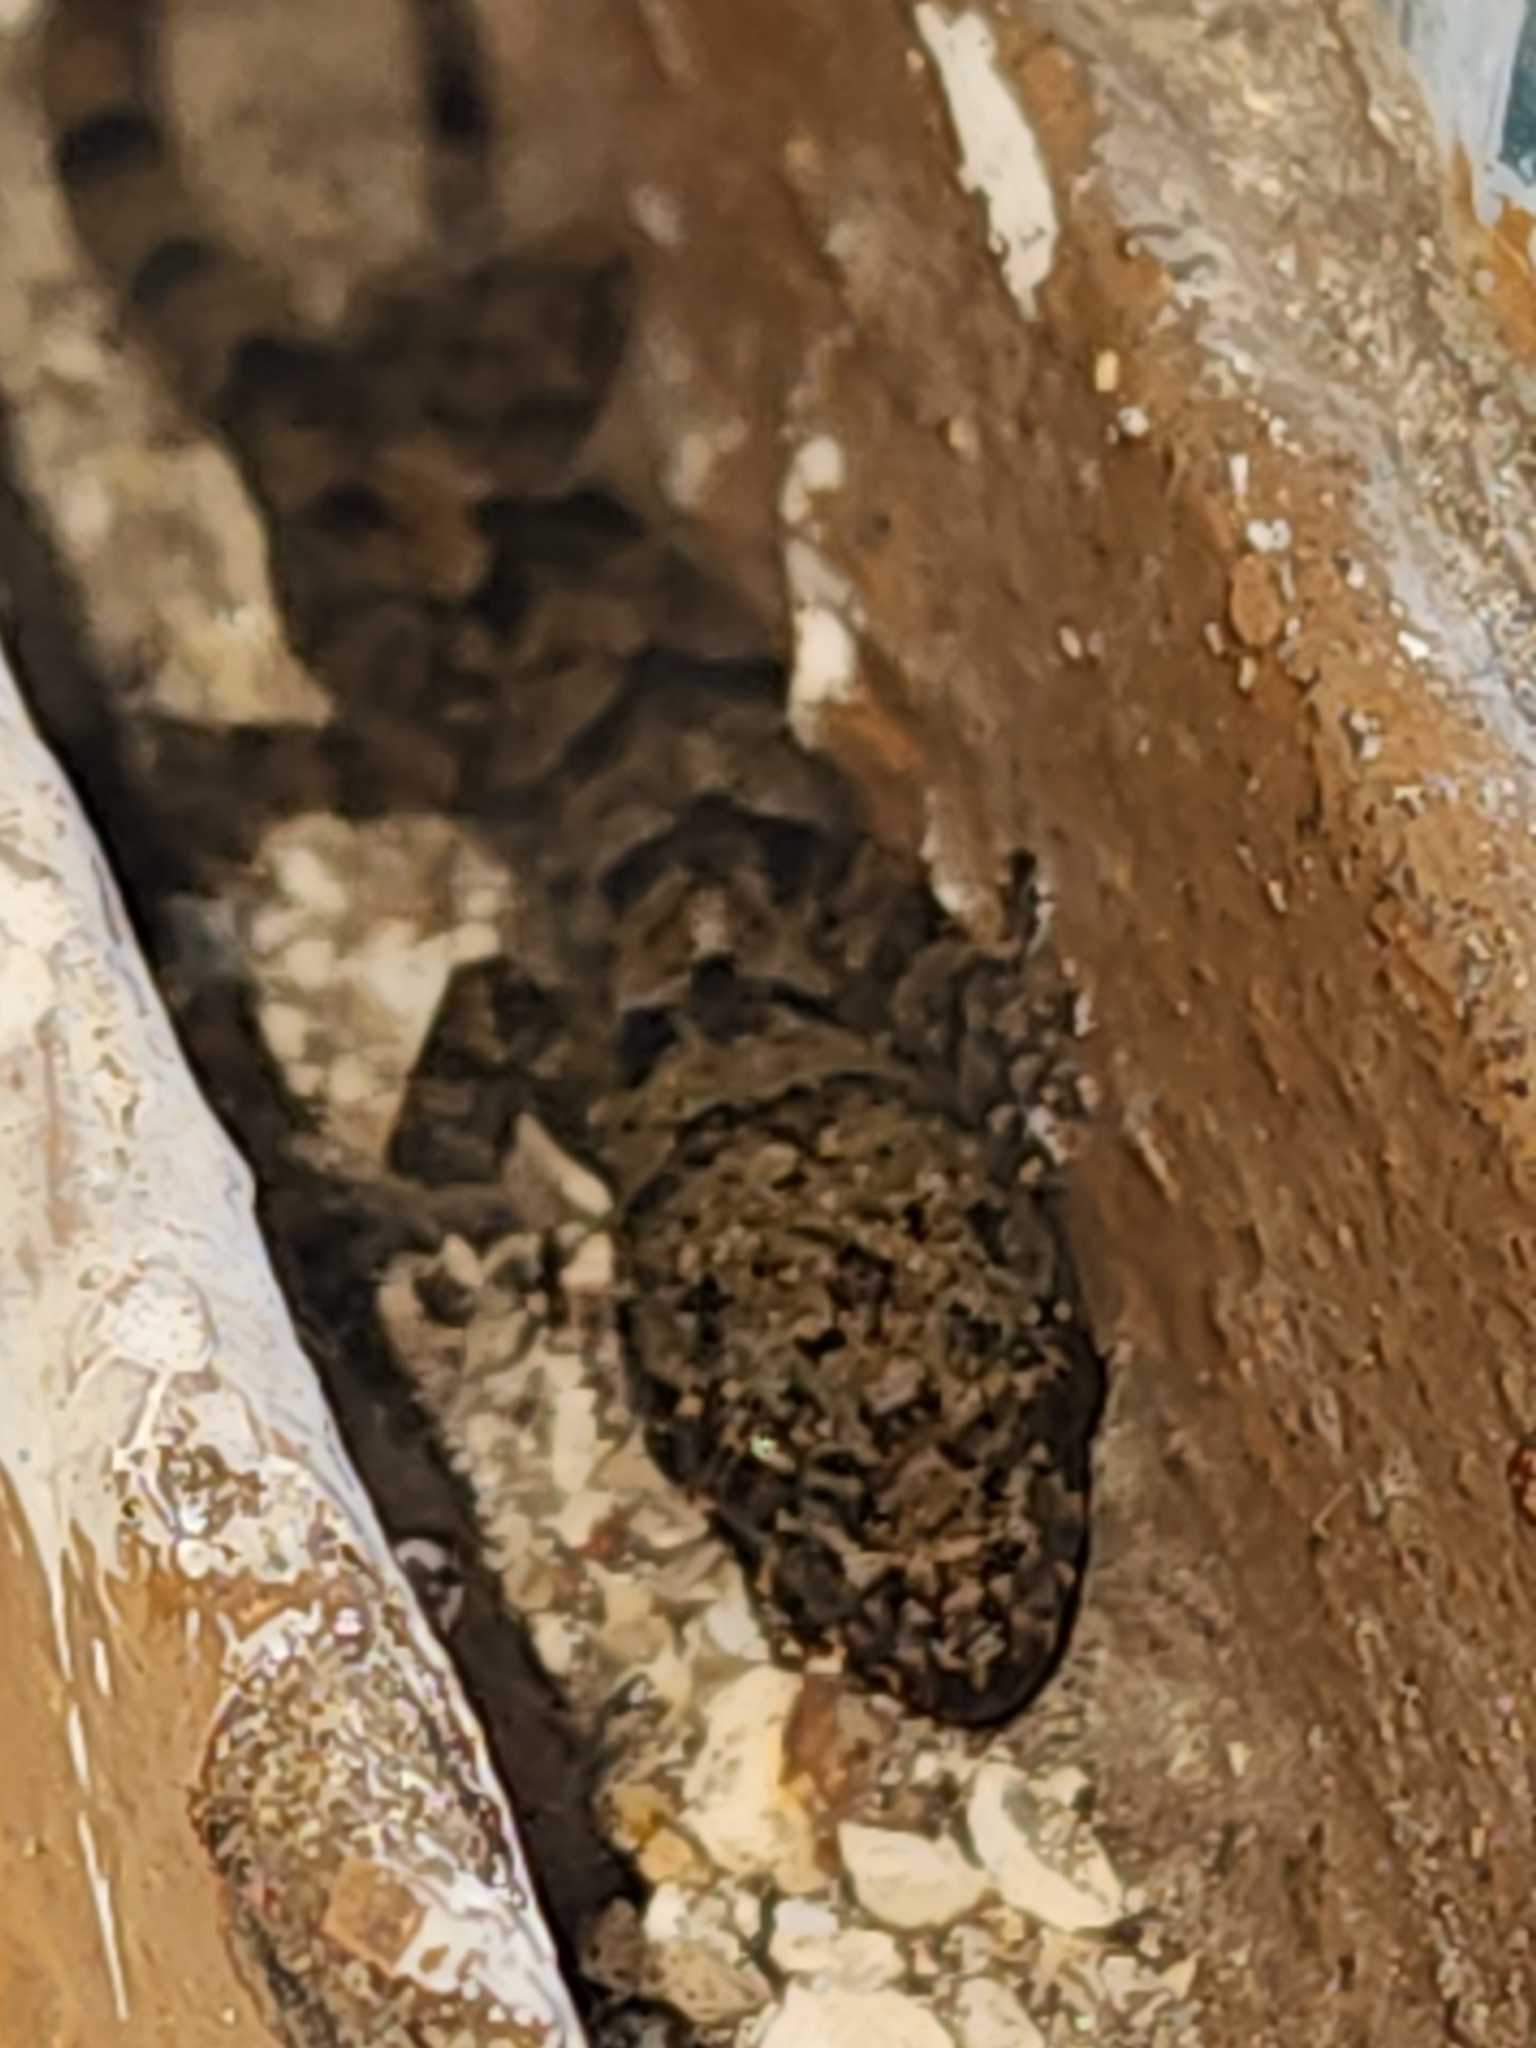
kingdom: Animalia
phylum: Chordata
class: Squamata
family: Gekkonidae
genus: Hemidactylus
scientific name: Hemidactylus mabouia
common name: House gecko
